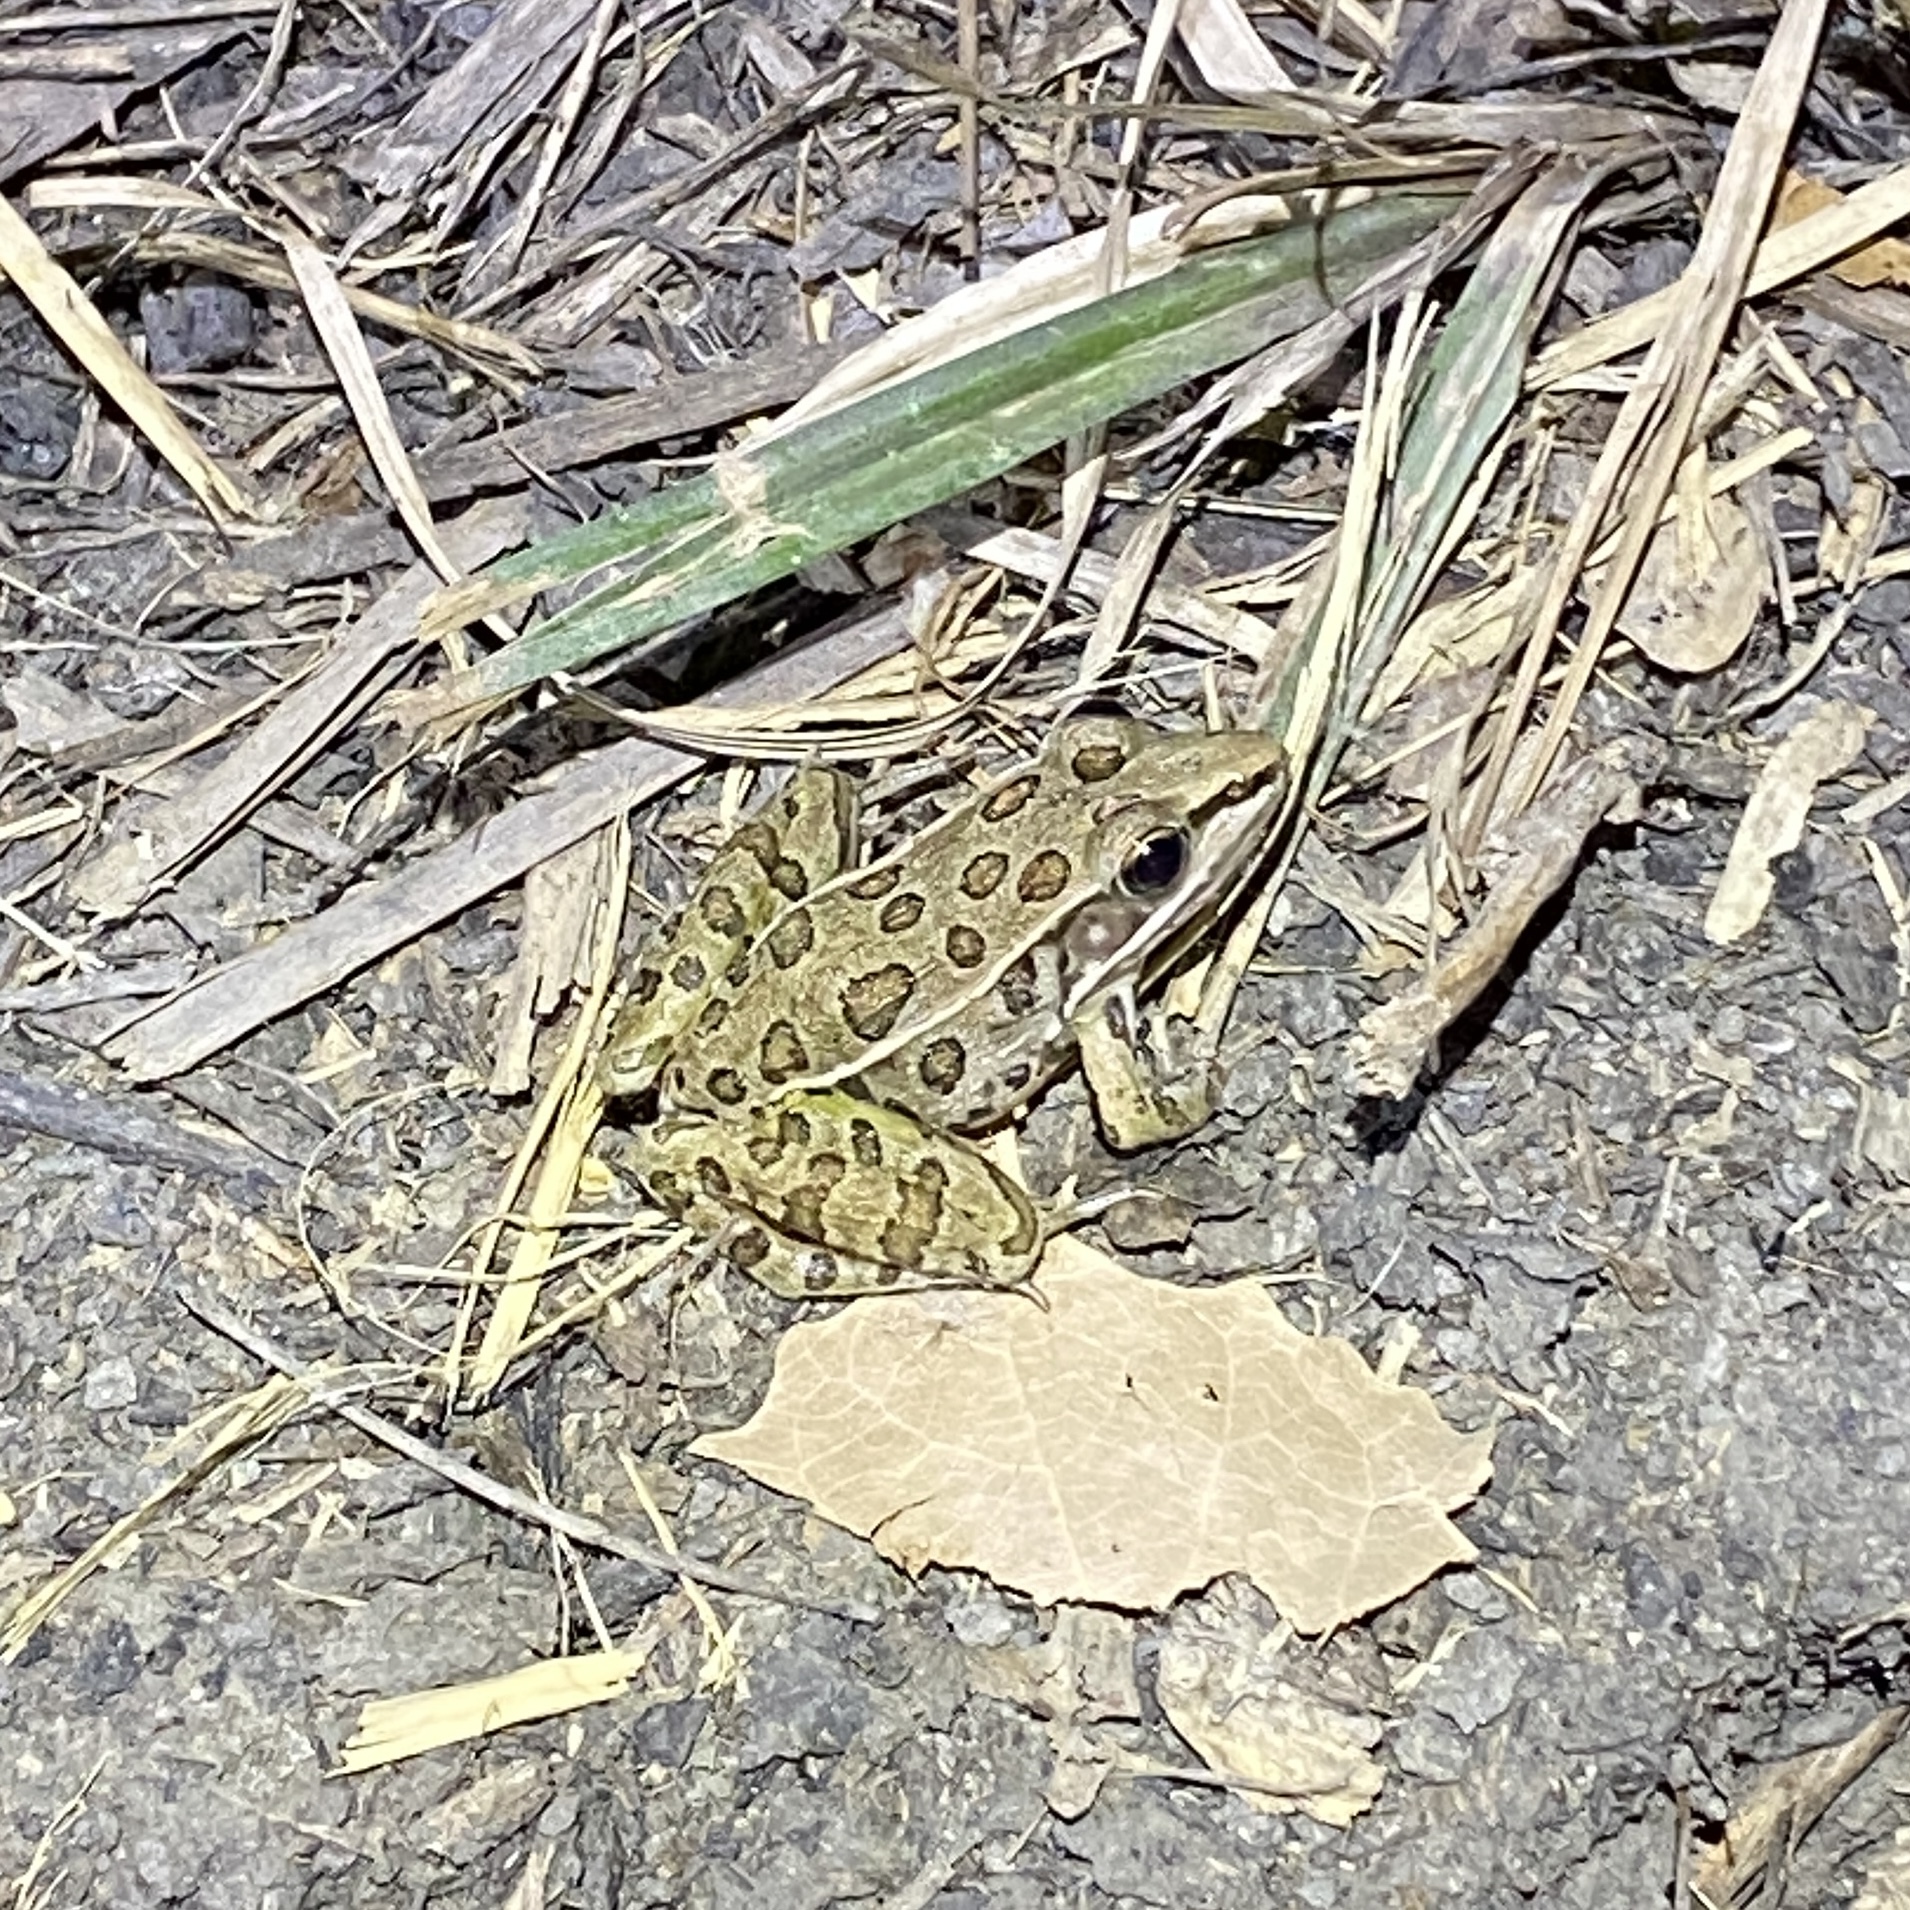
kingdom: Animalia
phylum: Chordata
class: Amphibia
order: Anura
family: Ranidae
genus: Lithobates
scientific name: Lithobates sphenocephalus
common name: Southern leopard frog
